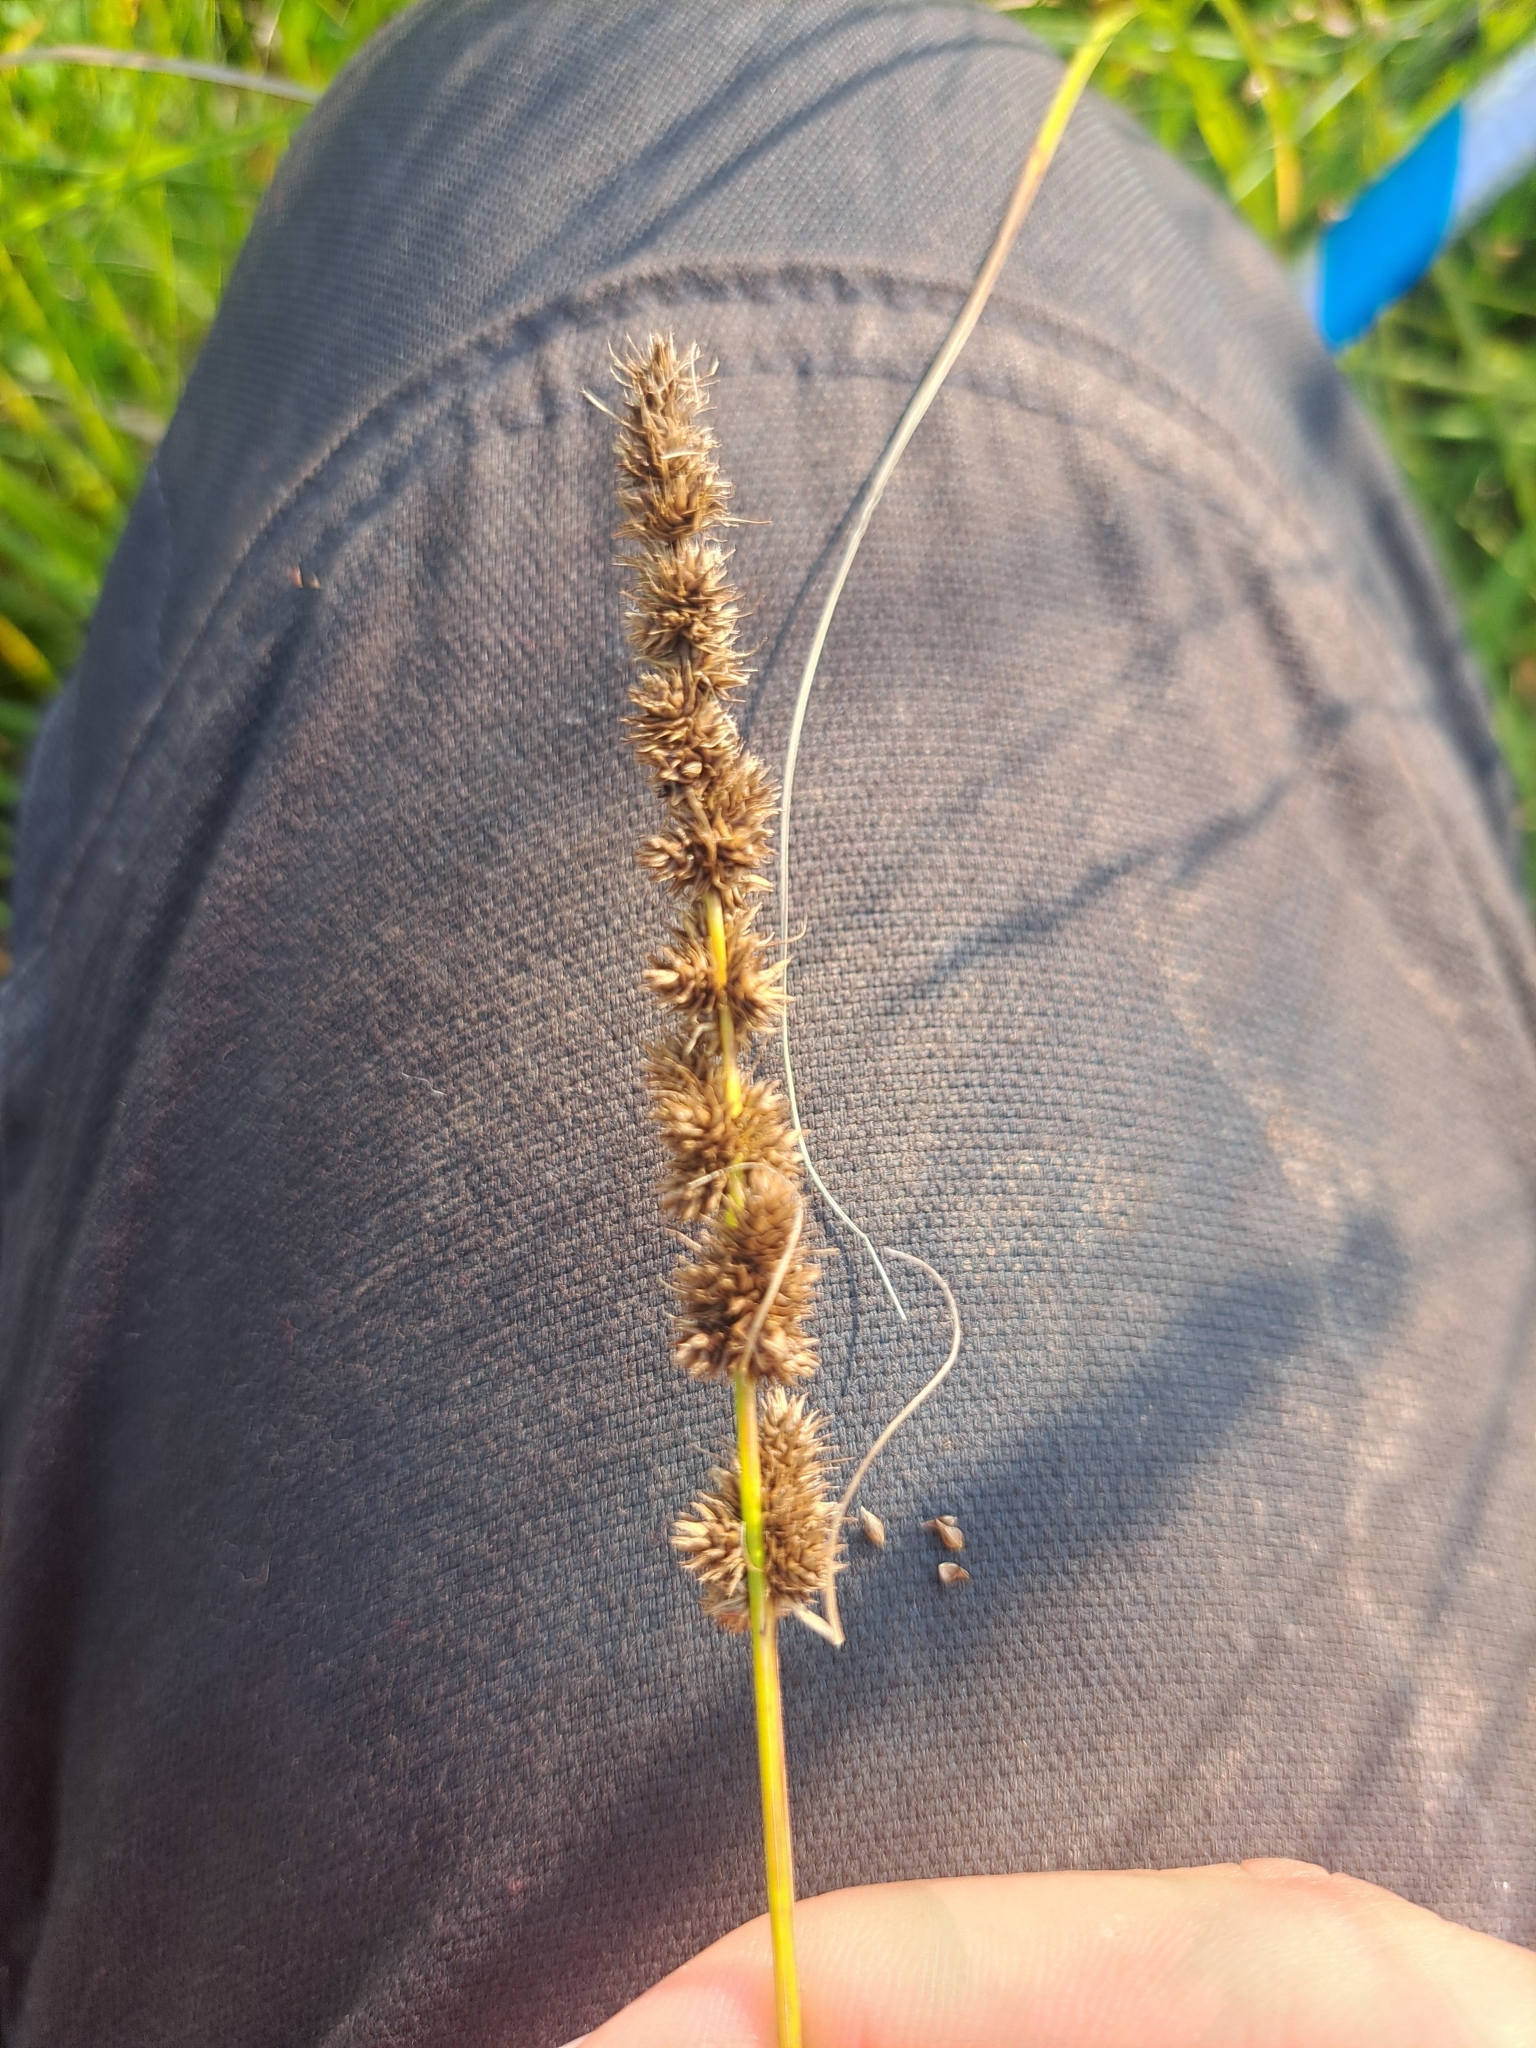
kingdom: Plantae
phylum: Tracheophyta
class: Liliopsida
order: Poales
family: Cyperaceae
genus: Carex
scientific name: Carex vulpinoidea
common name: American fox-sedge
